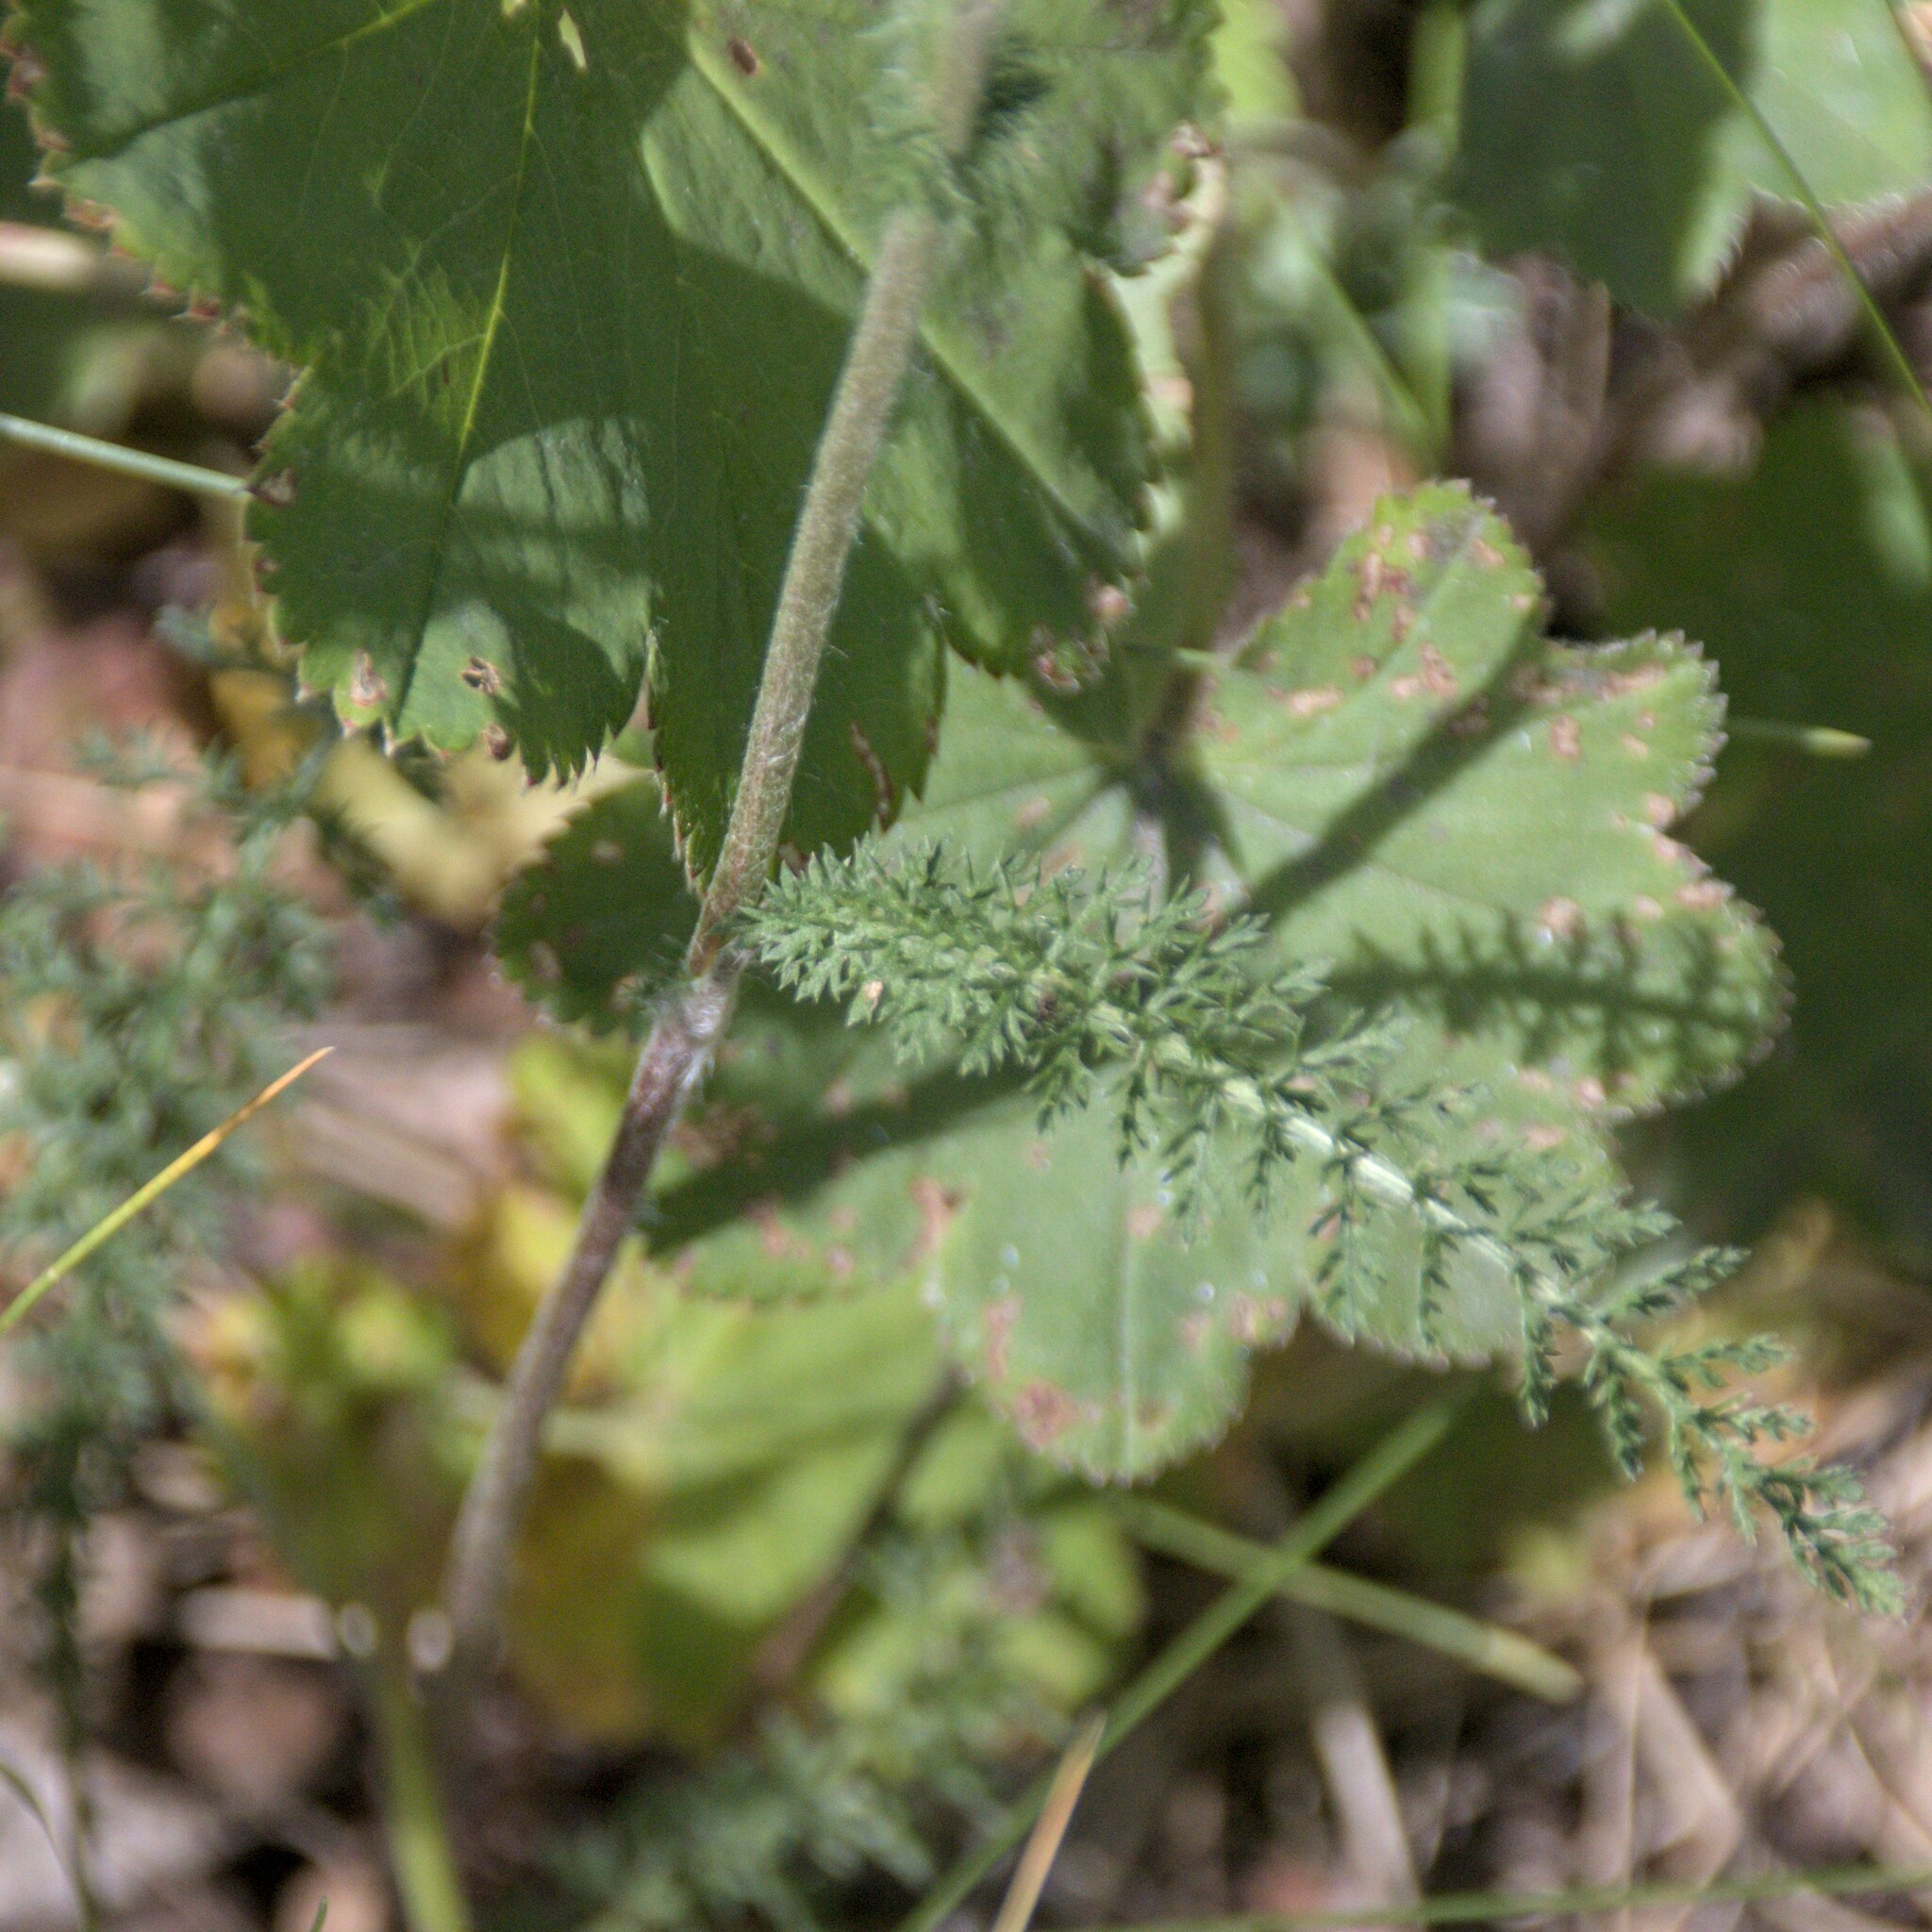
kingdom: Plantae
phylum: Tracheophyta
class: Magnoliopsida
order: Asterales
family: Asteraceae
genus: Achillea
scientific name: Achillea millefolium
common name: Yarrow
